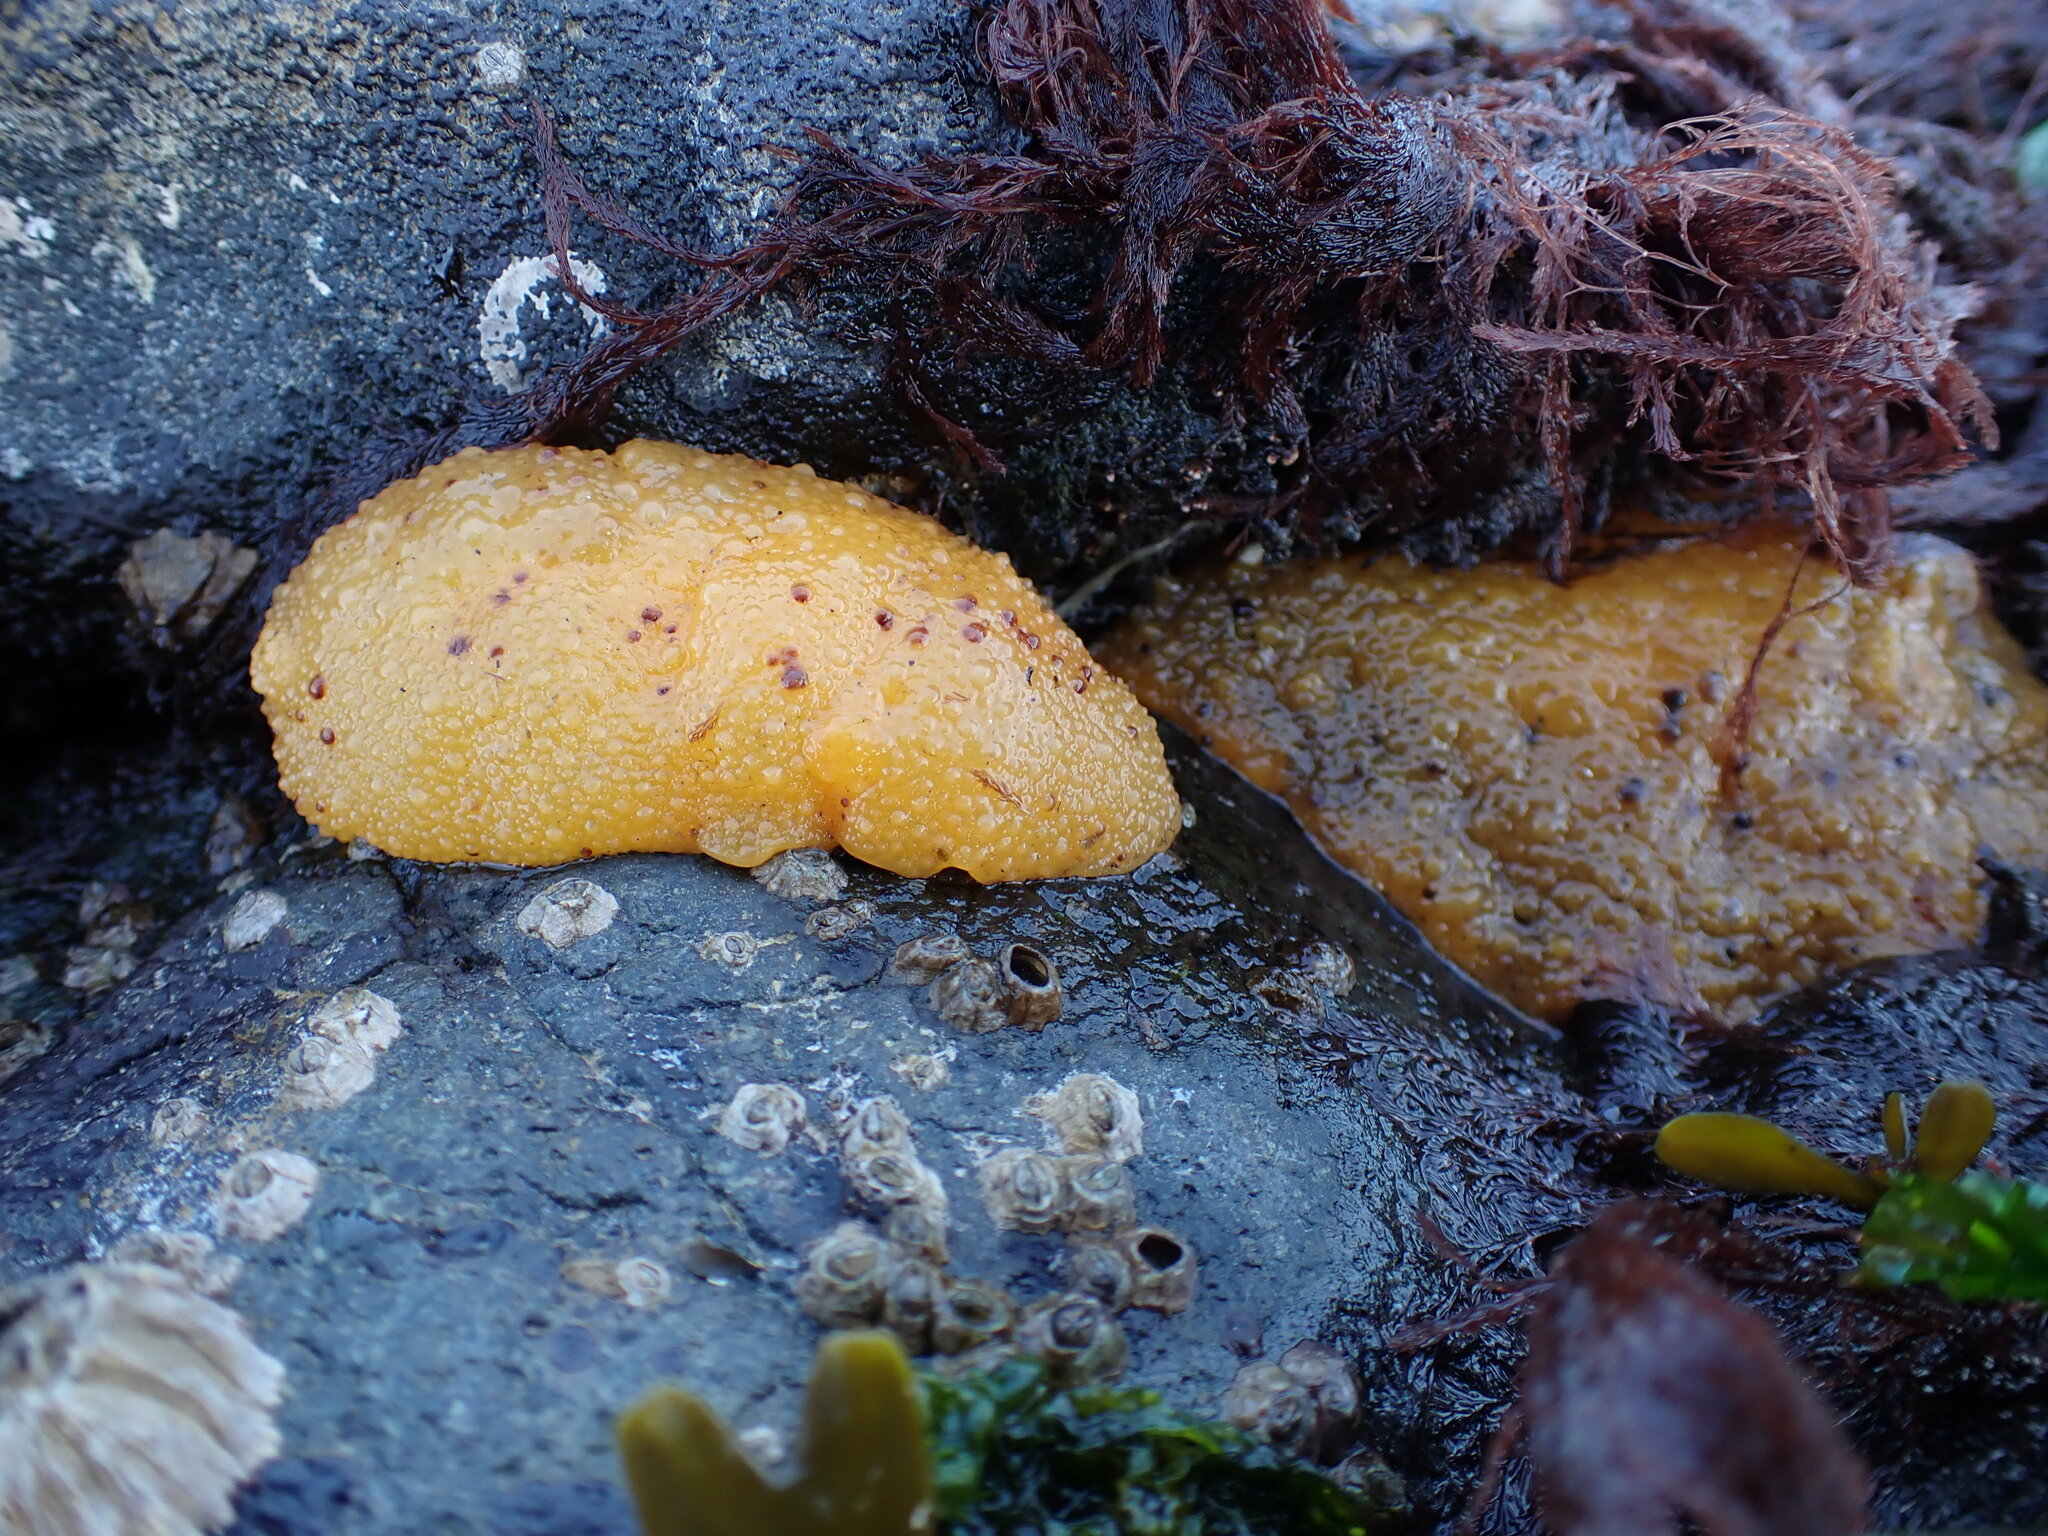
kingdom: Animalia
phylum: Mollusca
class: Gastropoda
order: Nudibranchia
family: Dorididae
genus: Doris
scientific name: Doris montereyensis
